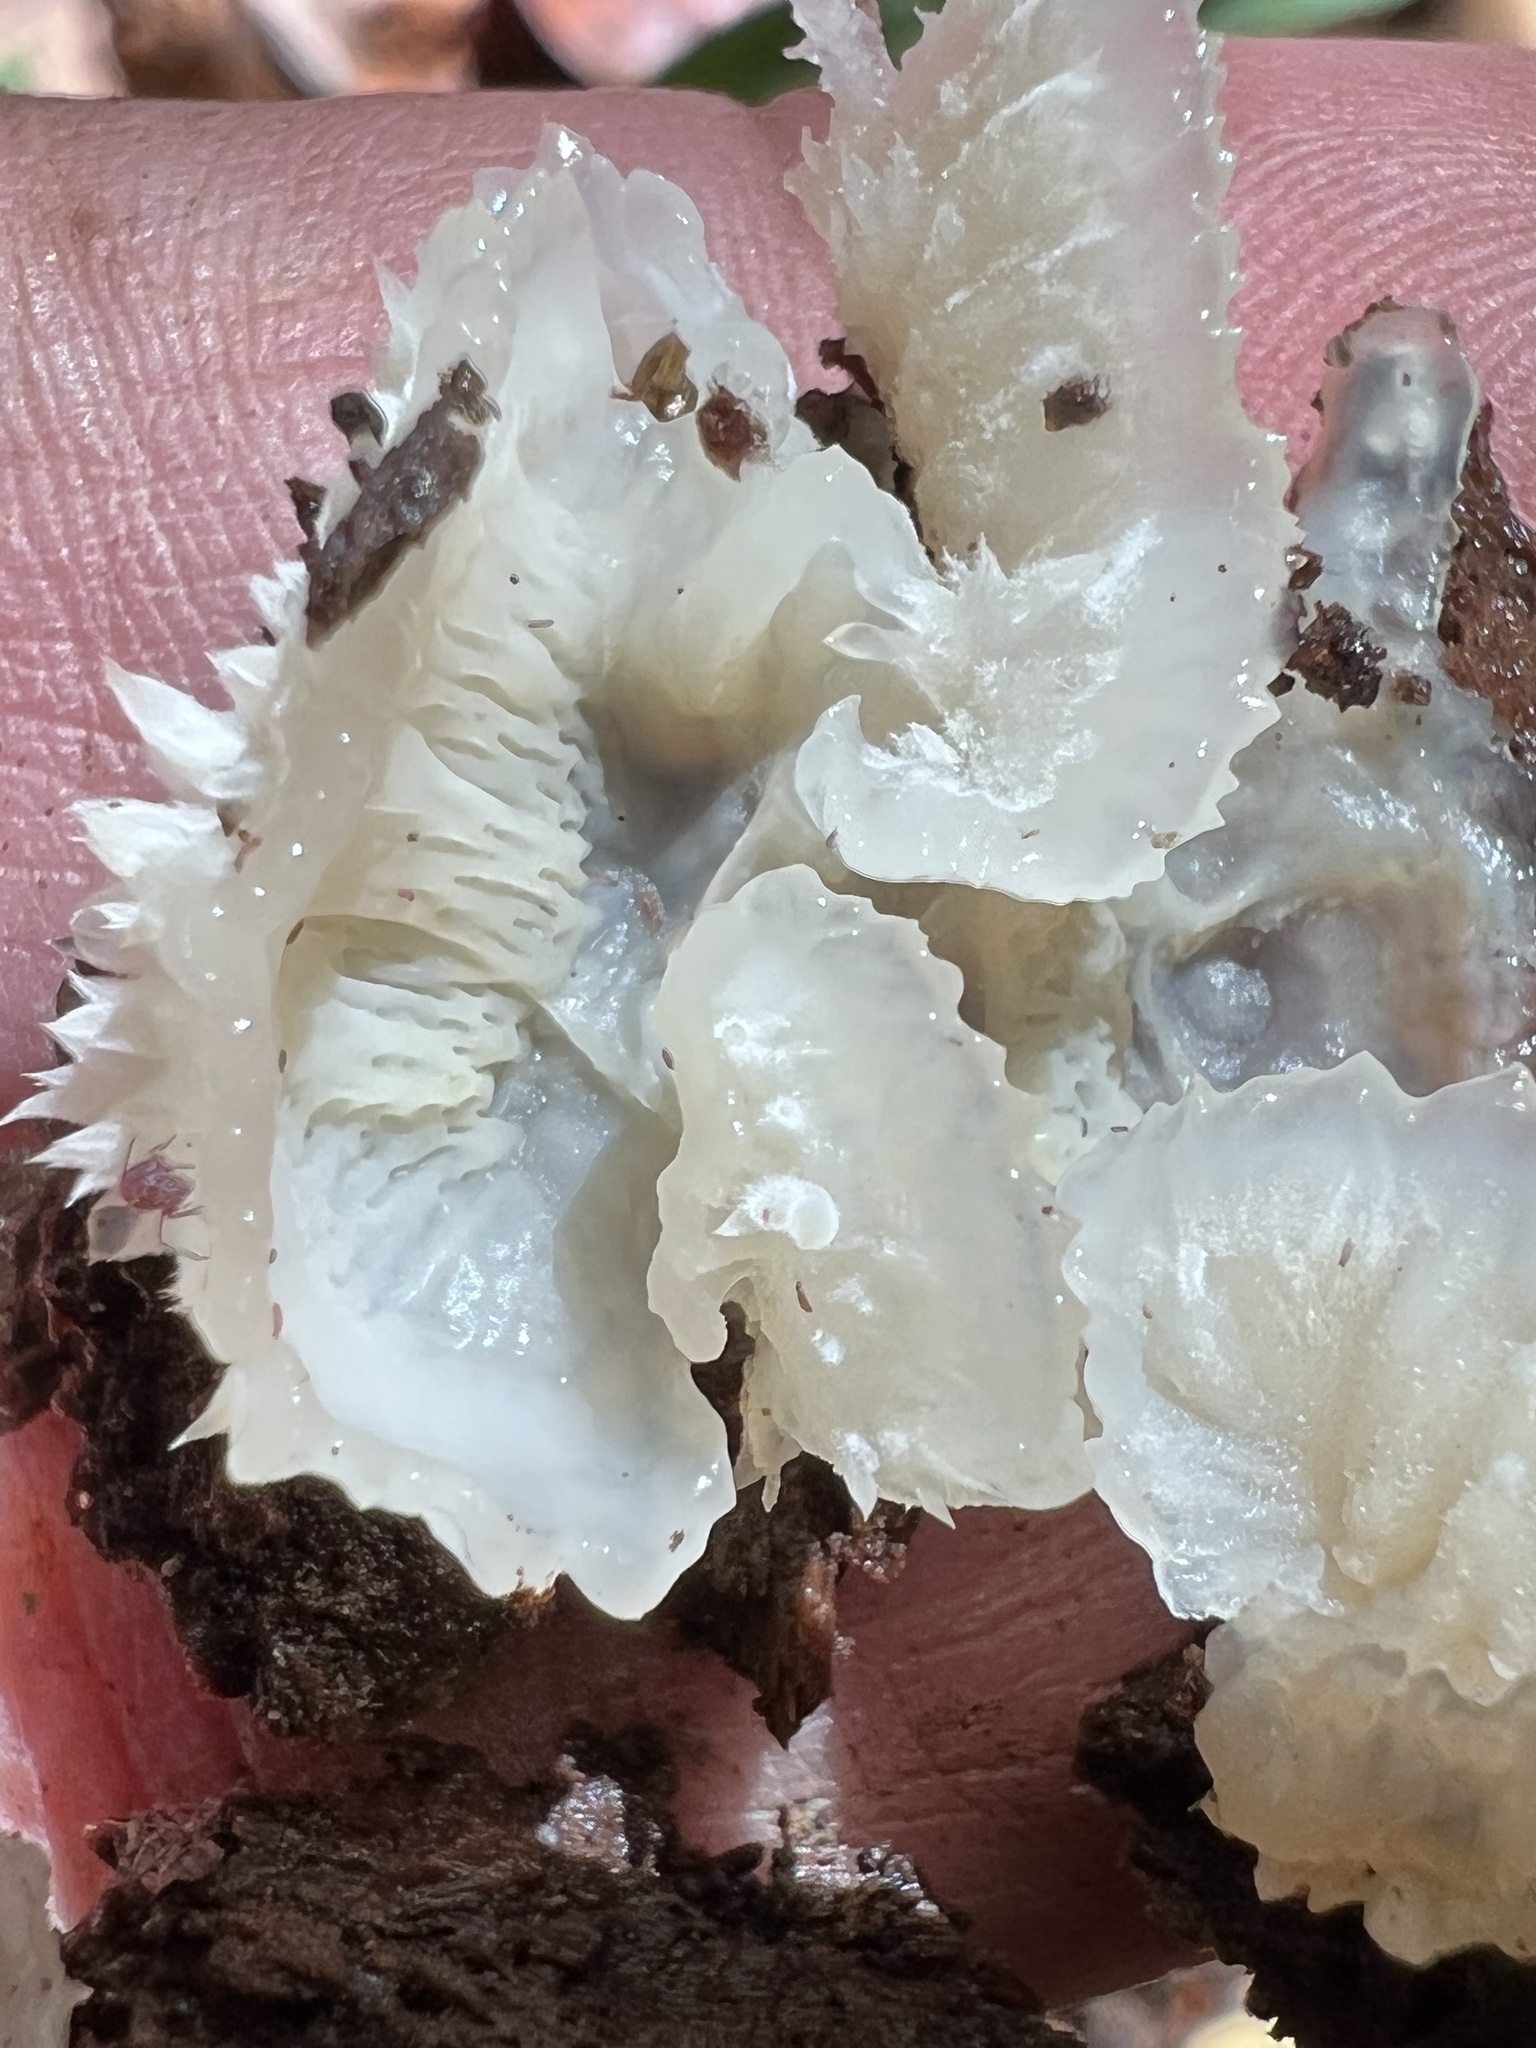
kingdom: Fungi
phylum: Basidiomycota
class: Agaricomycetes
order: Polyporales
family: Meruliaceae
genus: Phlebia
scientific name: Phlebia tremellosa
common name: Jelly rot
